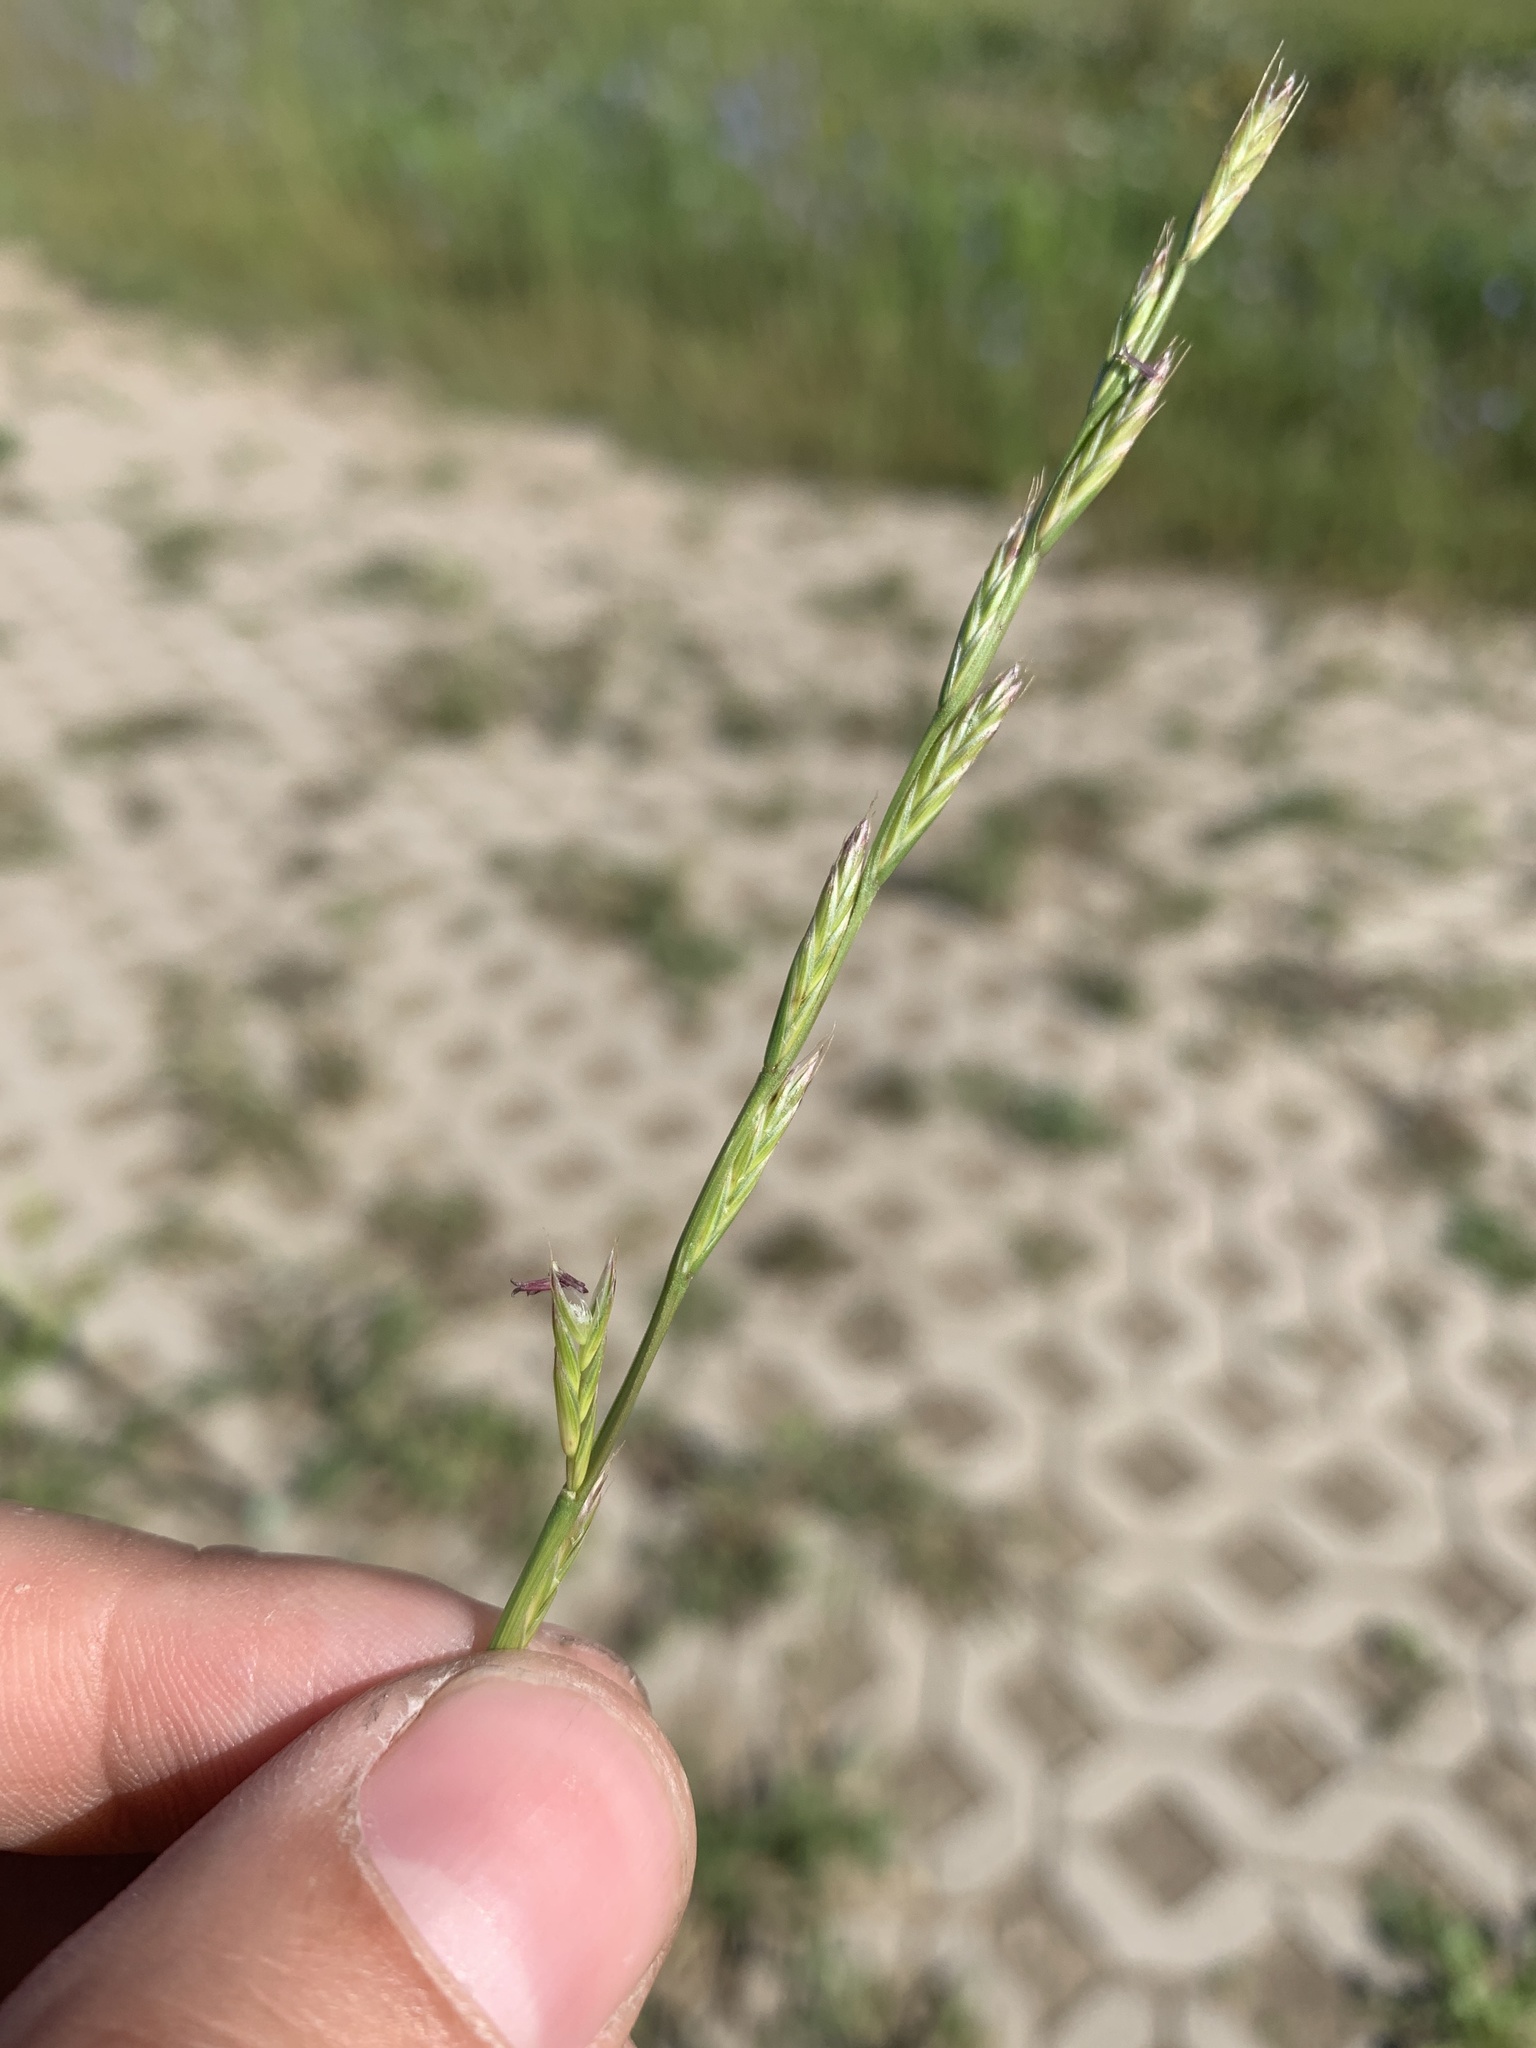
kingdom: Plantae
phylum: Tracheophyta
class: Liliopsida
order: Poales
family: Poaceae
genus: Lolium
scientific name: Lolium perenne
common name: Perennial ryegrass
